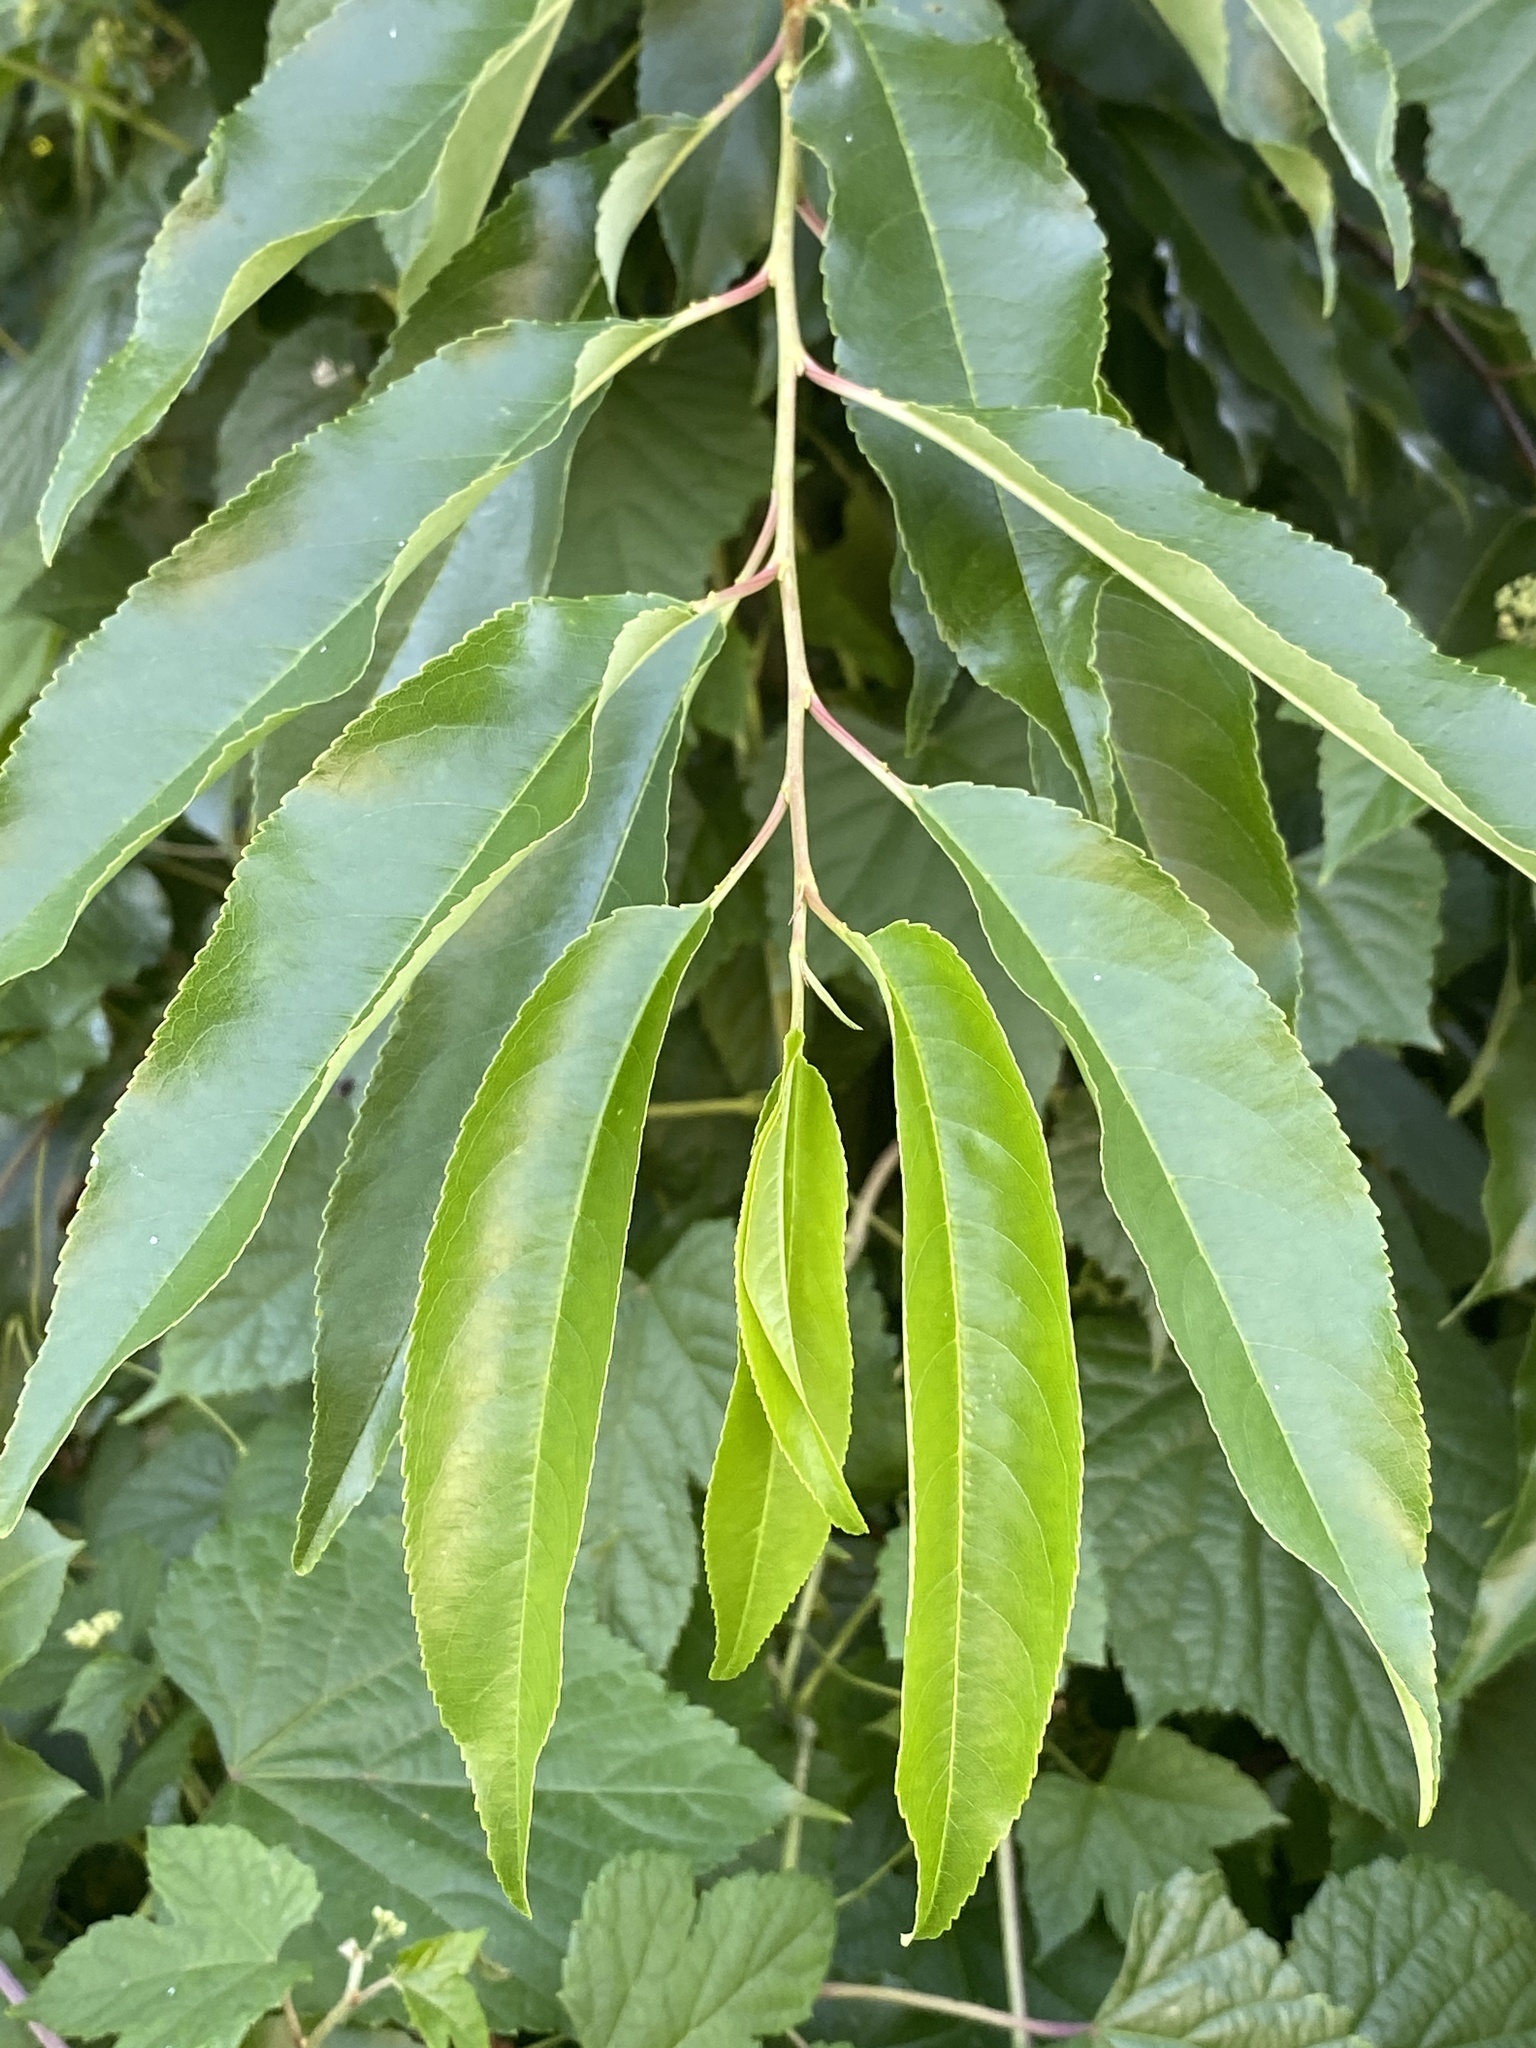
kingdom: Plantae
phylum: Tracheophyta
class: Magnoliopsida
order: Rosales
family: Rosaceae
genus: Prunus
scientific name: Prunus serotina
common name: Black cherry
